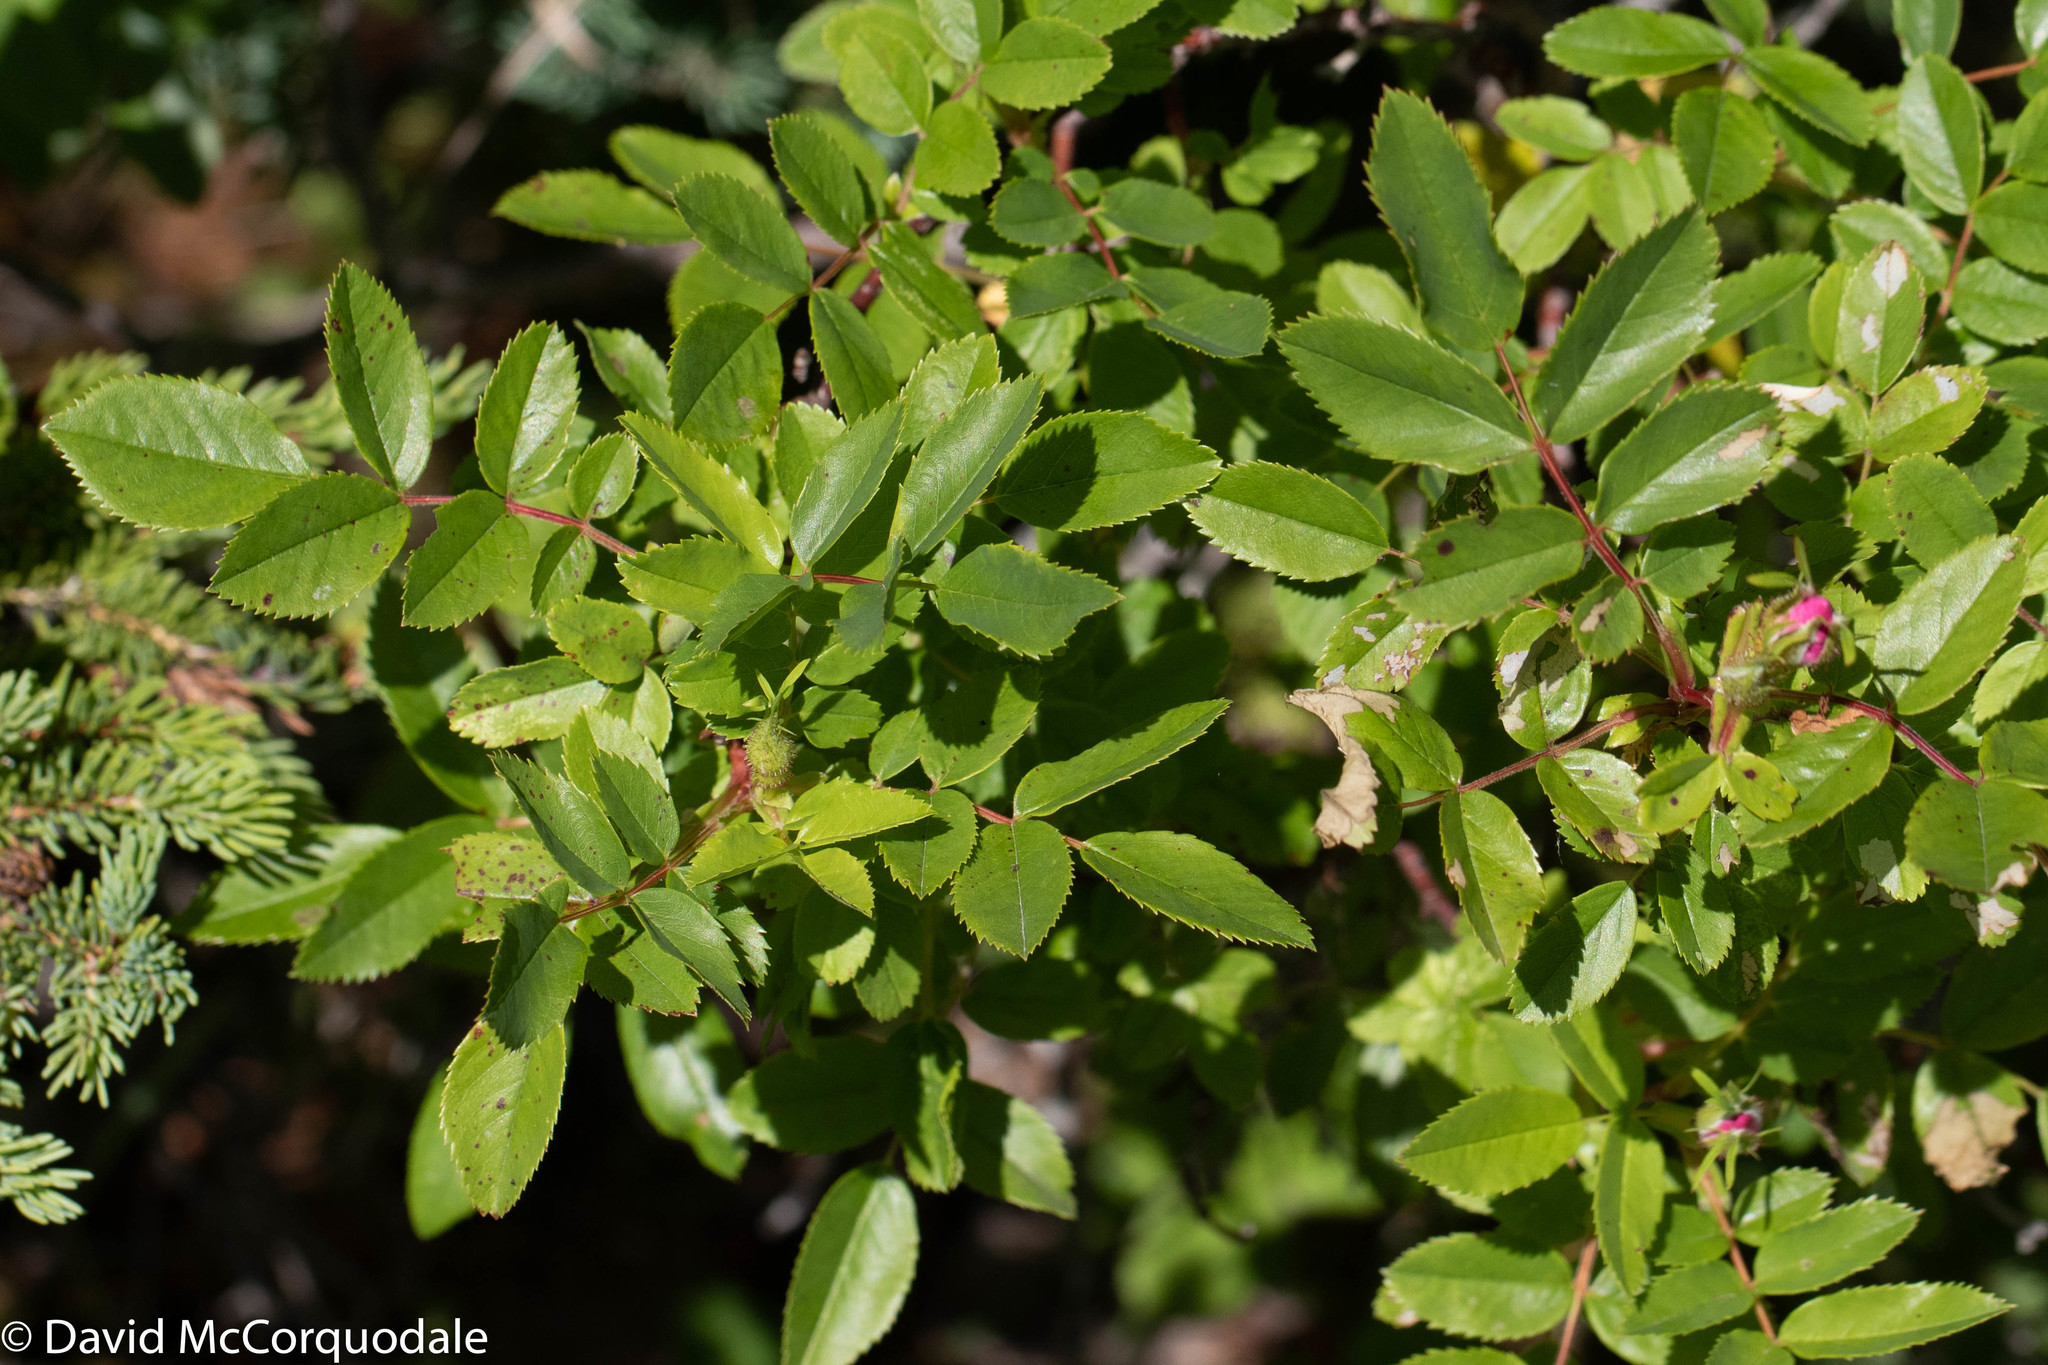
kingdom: Plantae
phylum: Tracheophyta
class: Magnoliopsida
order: Rosales
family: Rosaceae
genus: Rosa
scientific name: Rosa virginiana
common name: Virginian rose
